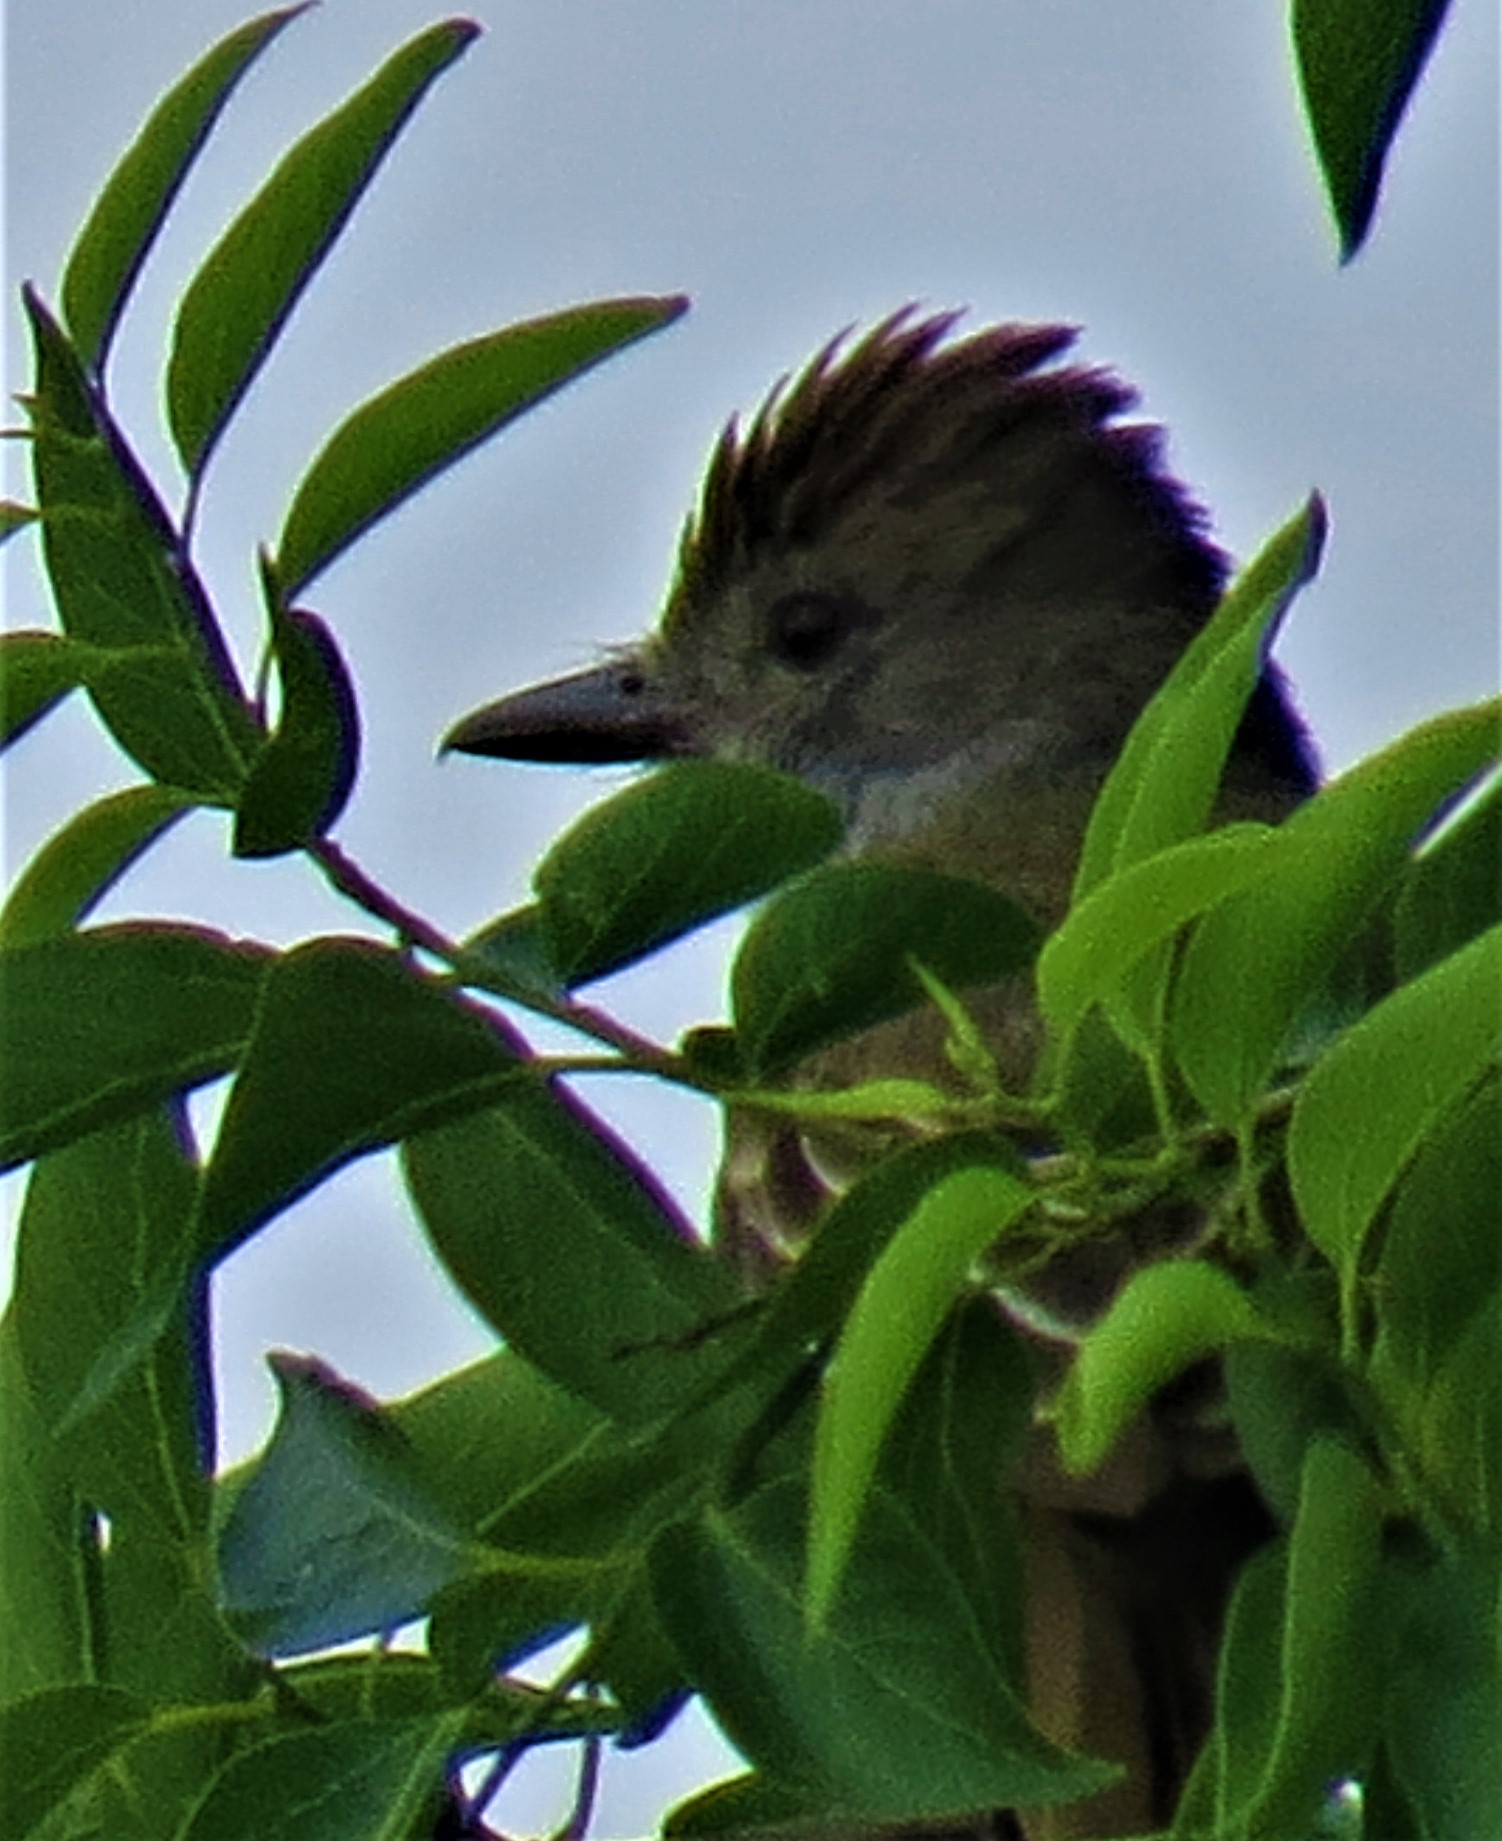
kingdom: Animalia
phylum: Chordata
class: Aves
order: Passeriformes
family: Tyrannidae
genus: Myiarchus
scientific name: Myiarchus tyrannulus
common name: Brown-crested flycatcher
